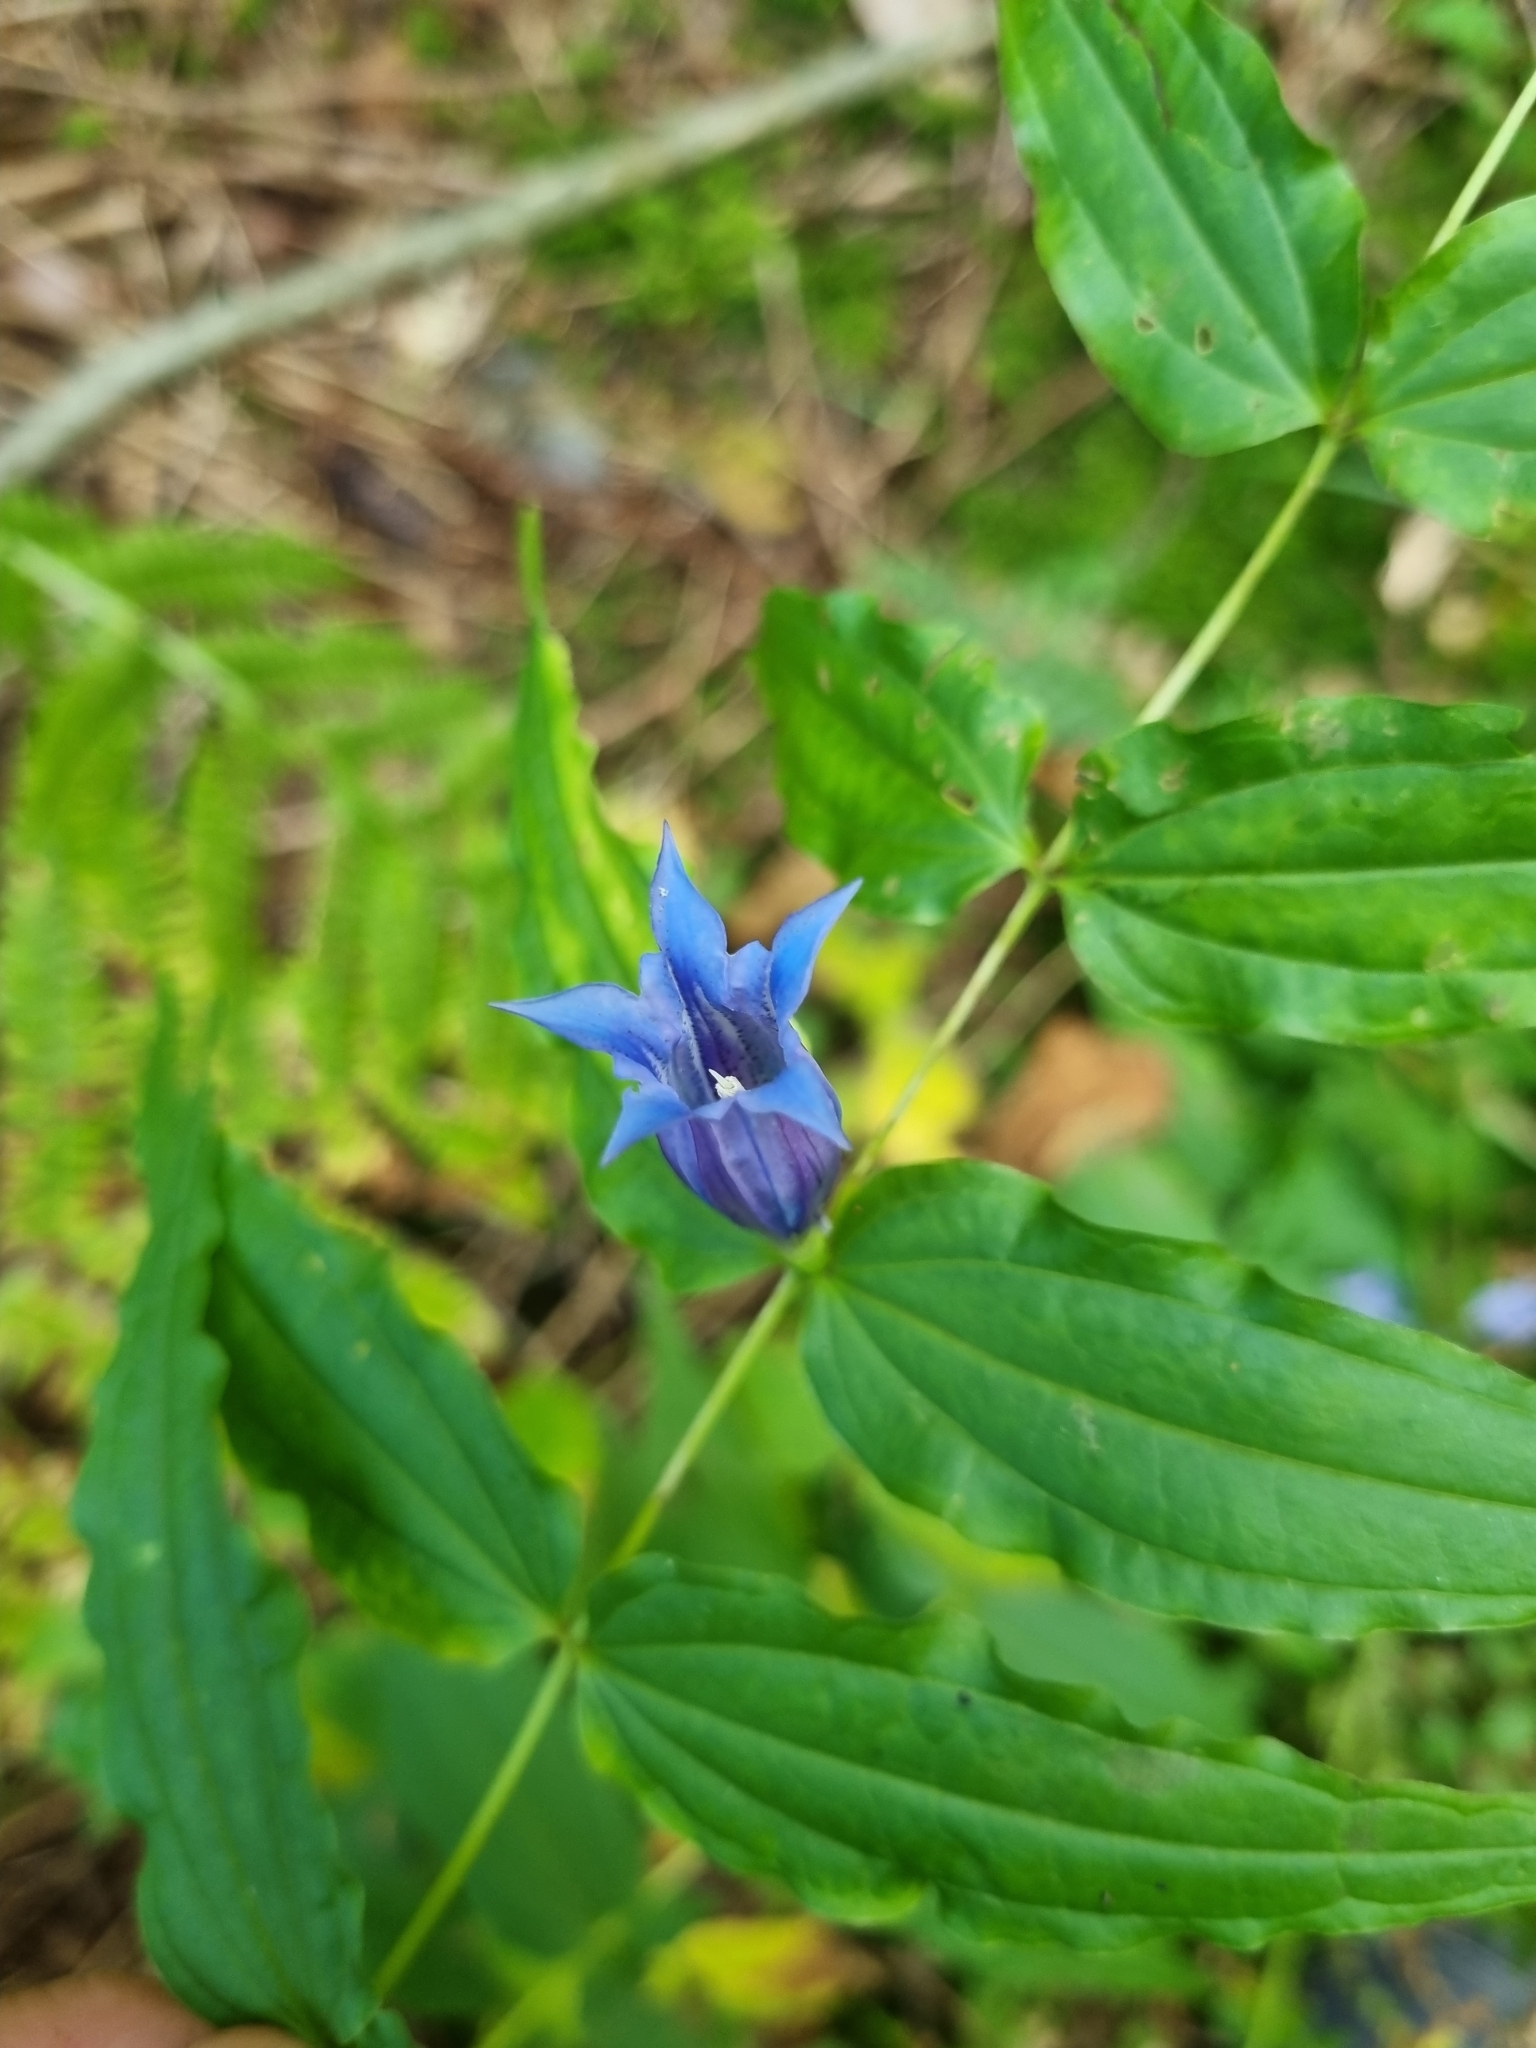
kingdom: Plantae
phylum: Tracheophyta
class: Magnoliopsida
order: Gentianales
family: Gentianaceae
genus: Gentiana
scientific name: Gentiana asclepiadea
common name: Willow gentian
